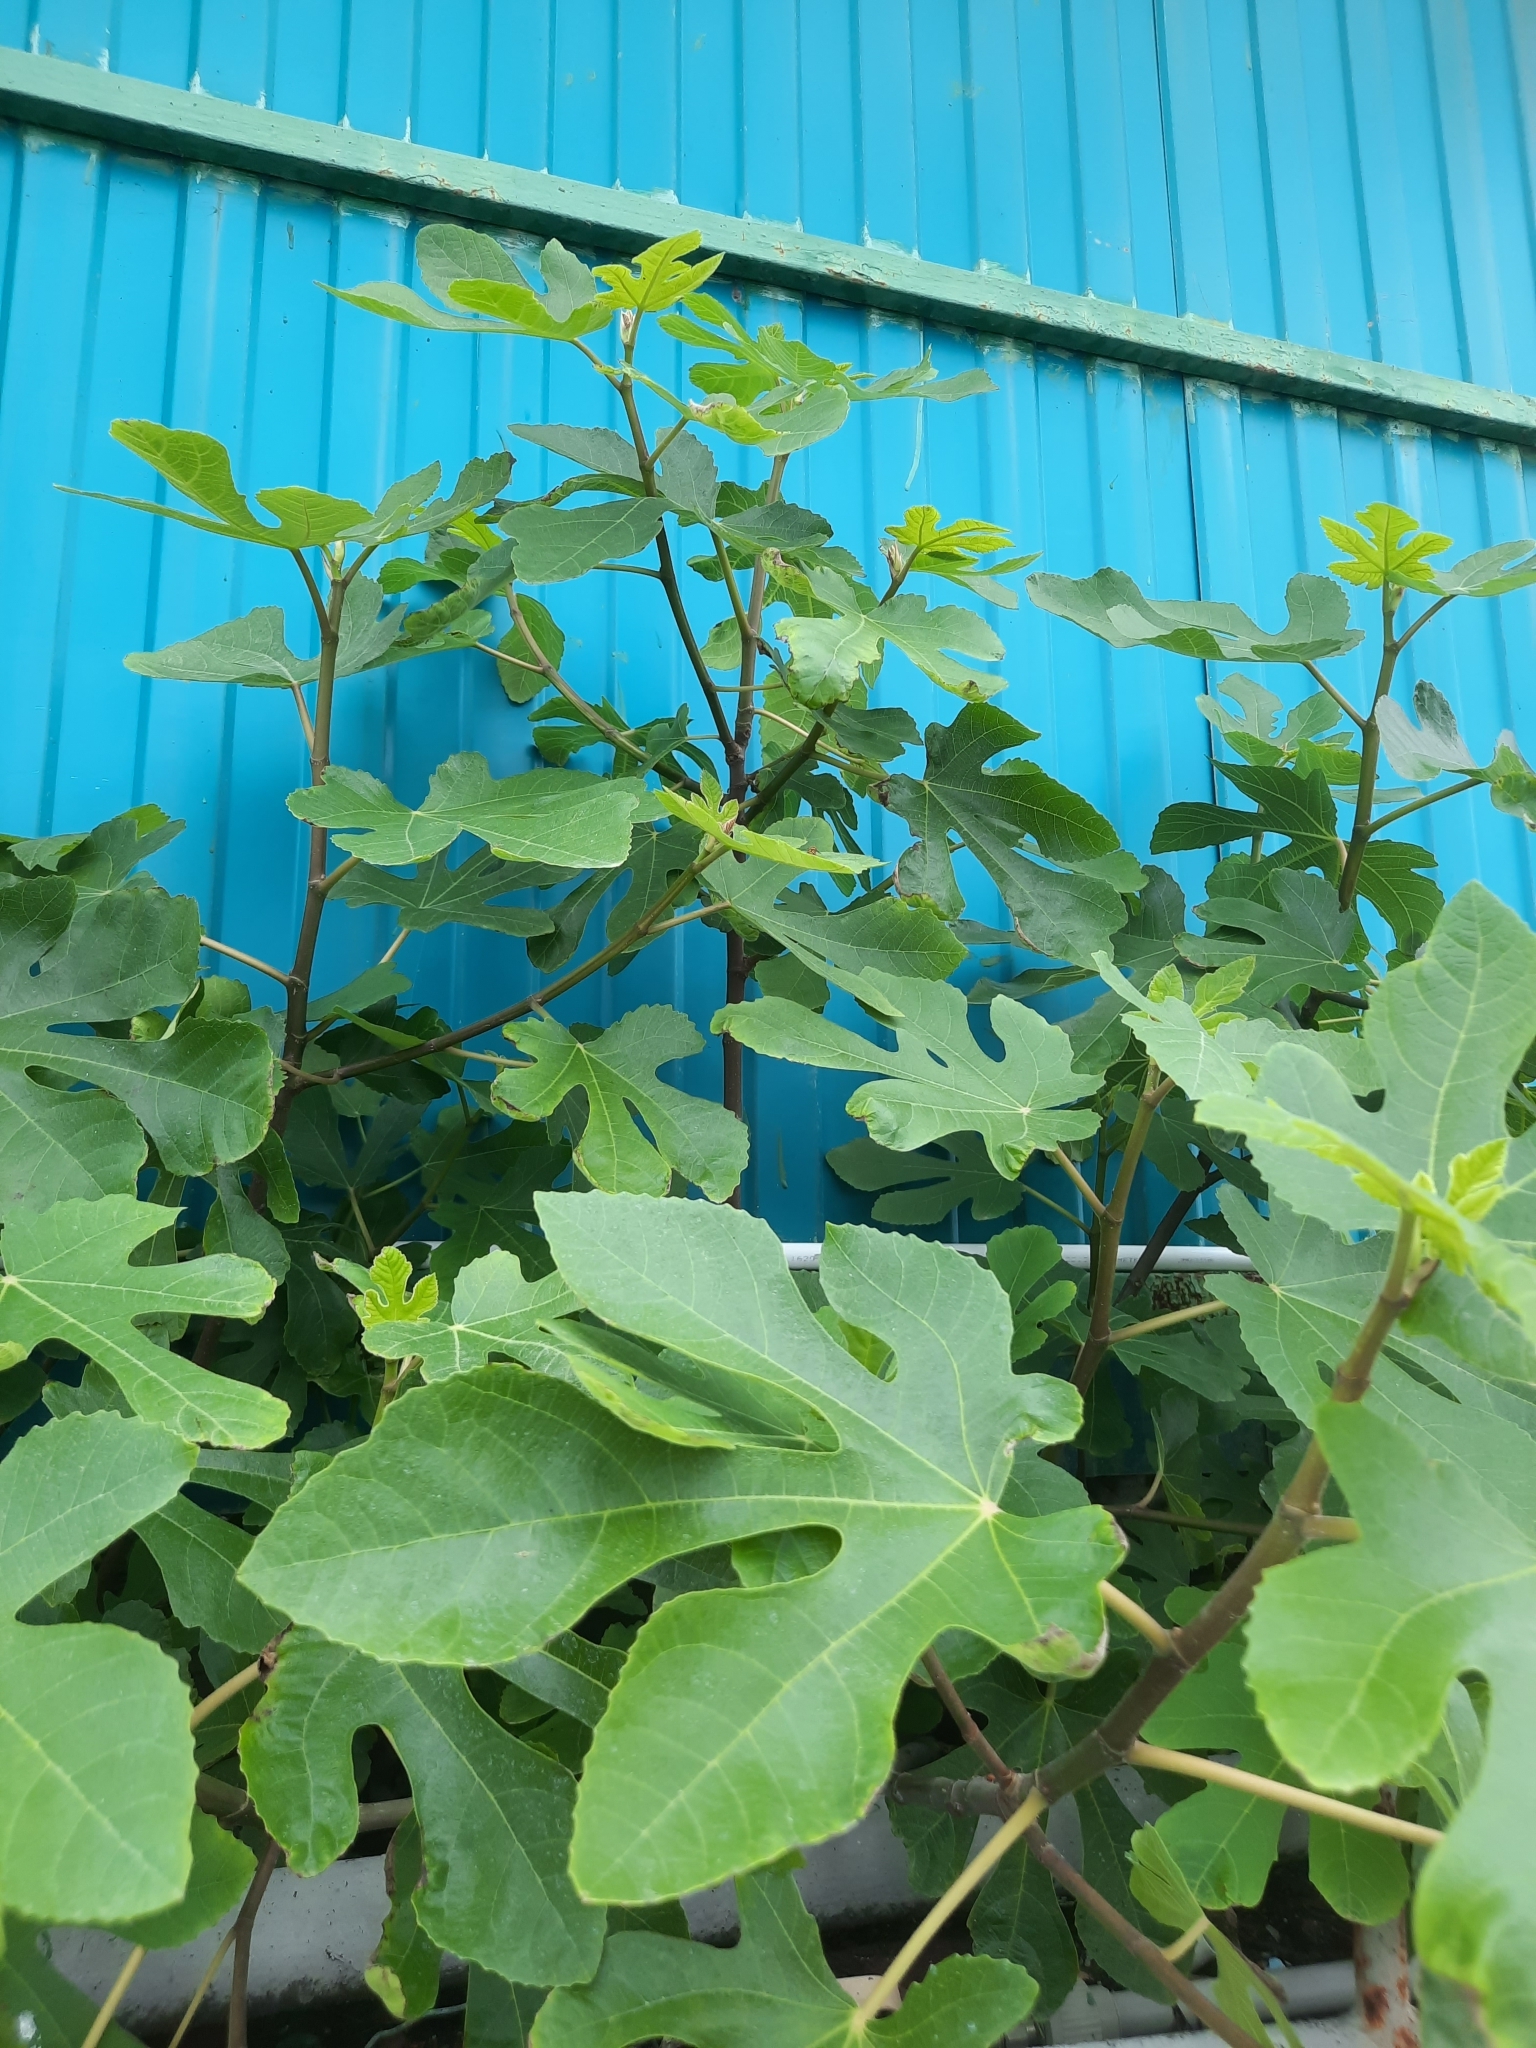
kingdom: Plantae
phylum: Tracheophyta
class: Magnoliopsida
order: Rosales
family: Moraceae
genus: Ficus
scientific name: Ficus carica
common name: Fig
